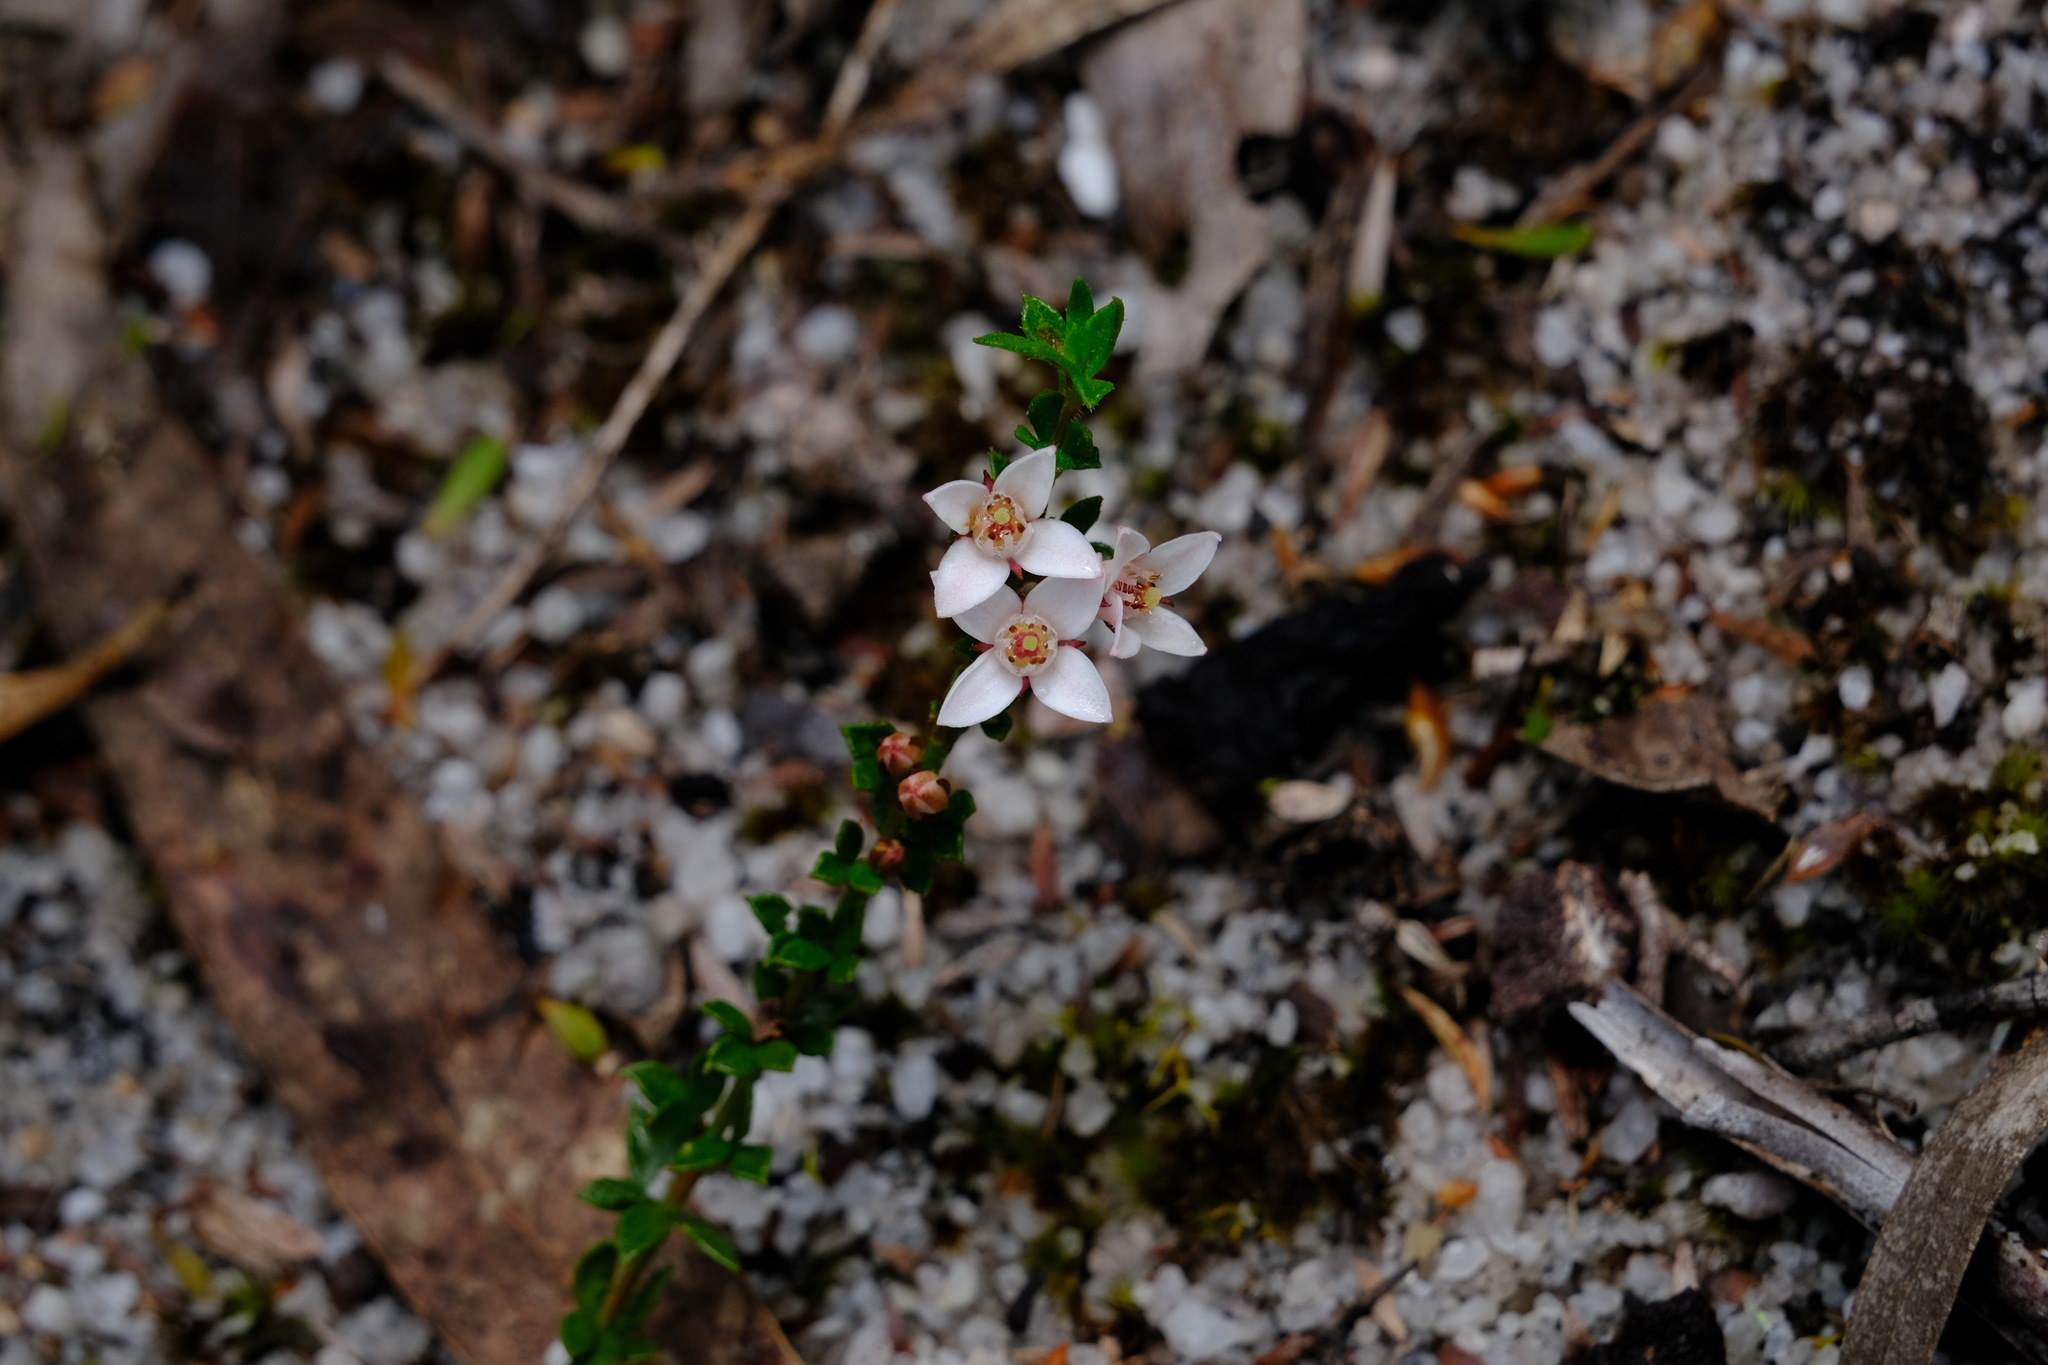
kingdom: Plantae
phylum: Tracheophyta
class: Magnoliopsida
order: Sapindales
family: Rutaceae
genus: Cyanothamnus
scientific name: Cyanothamnus nanus
